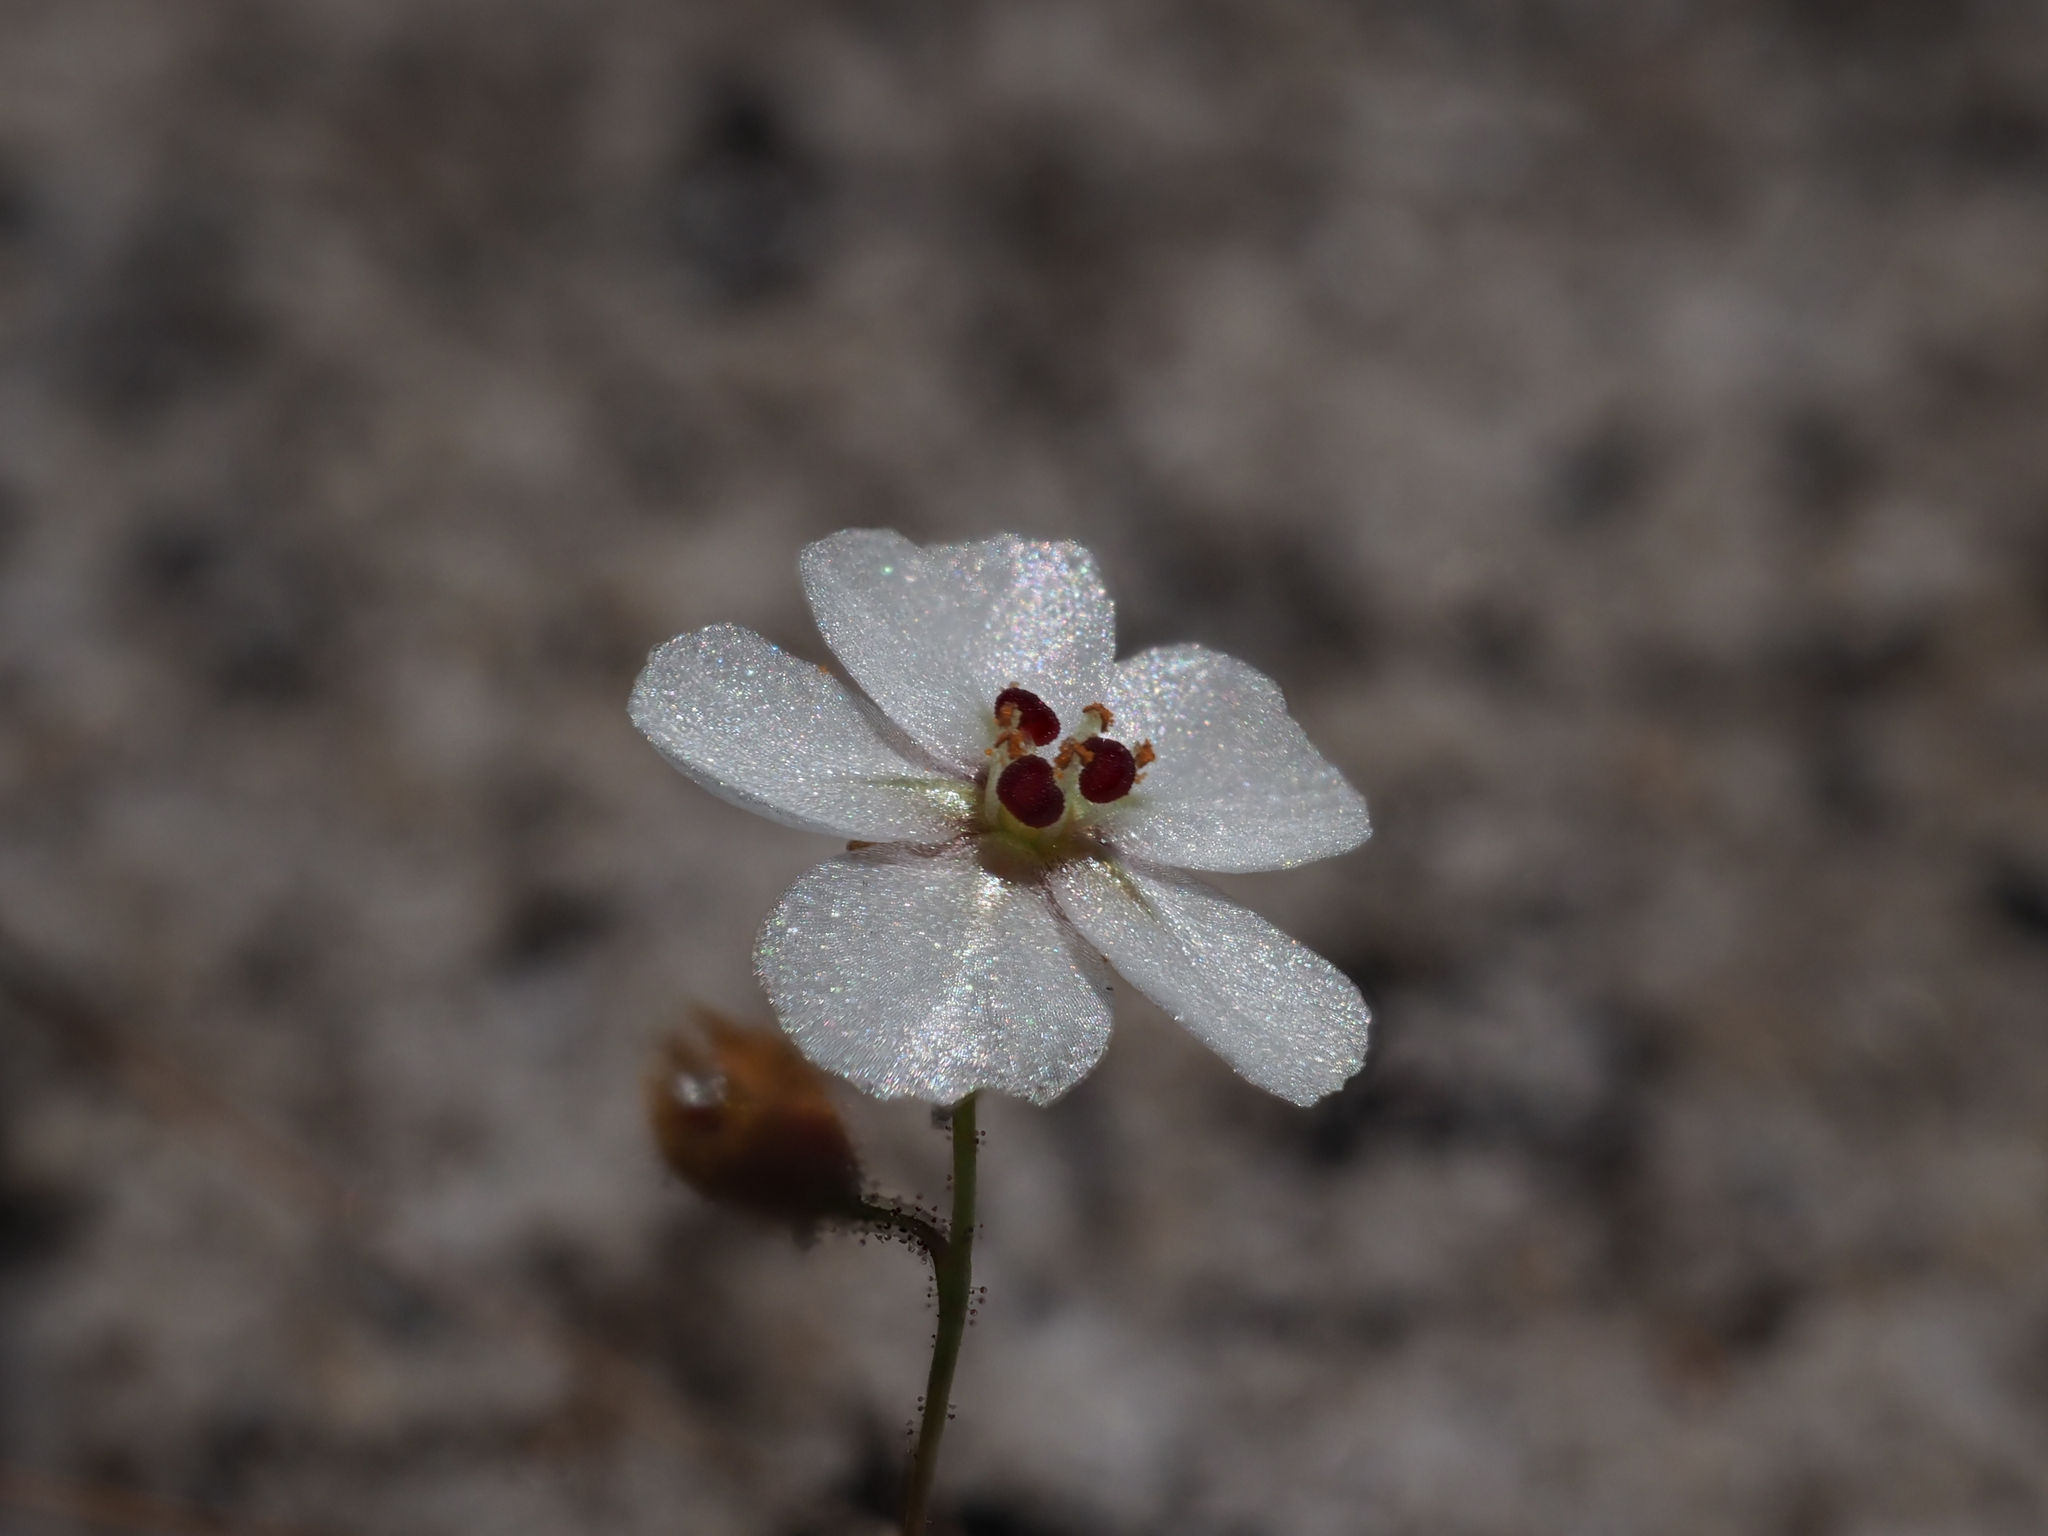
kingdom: Plantae
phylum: Tracheophyta
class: Magnoliopsida
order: Caryophyllales
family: Droseraceae
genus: Drosera
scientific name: Drosera nitidula
